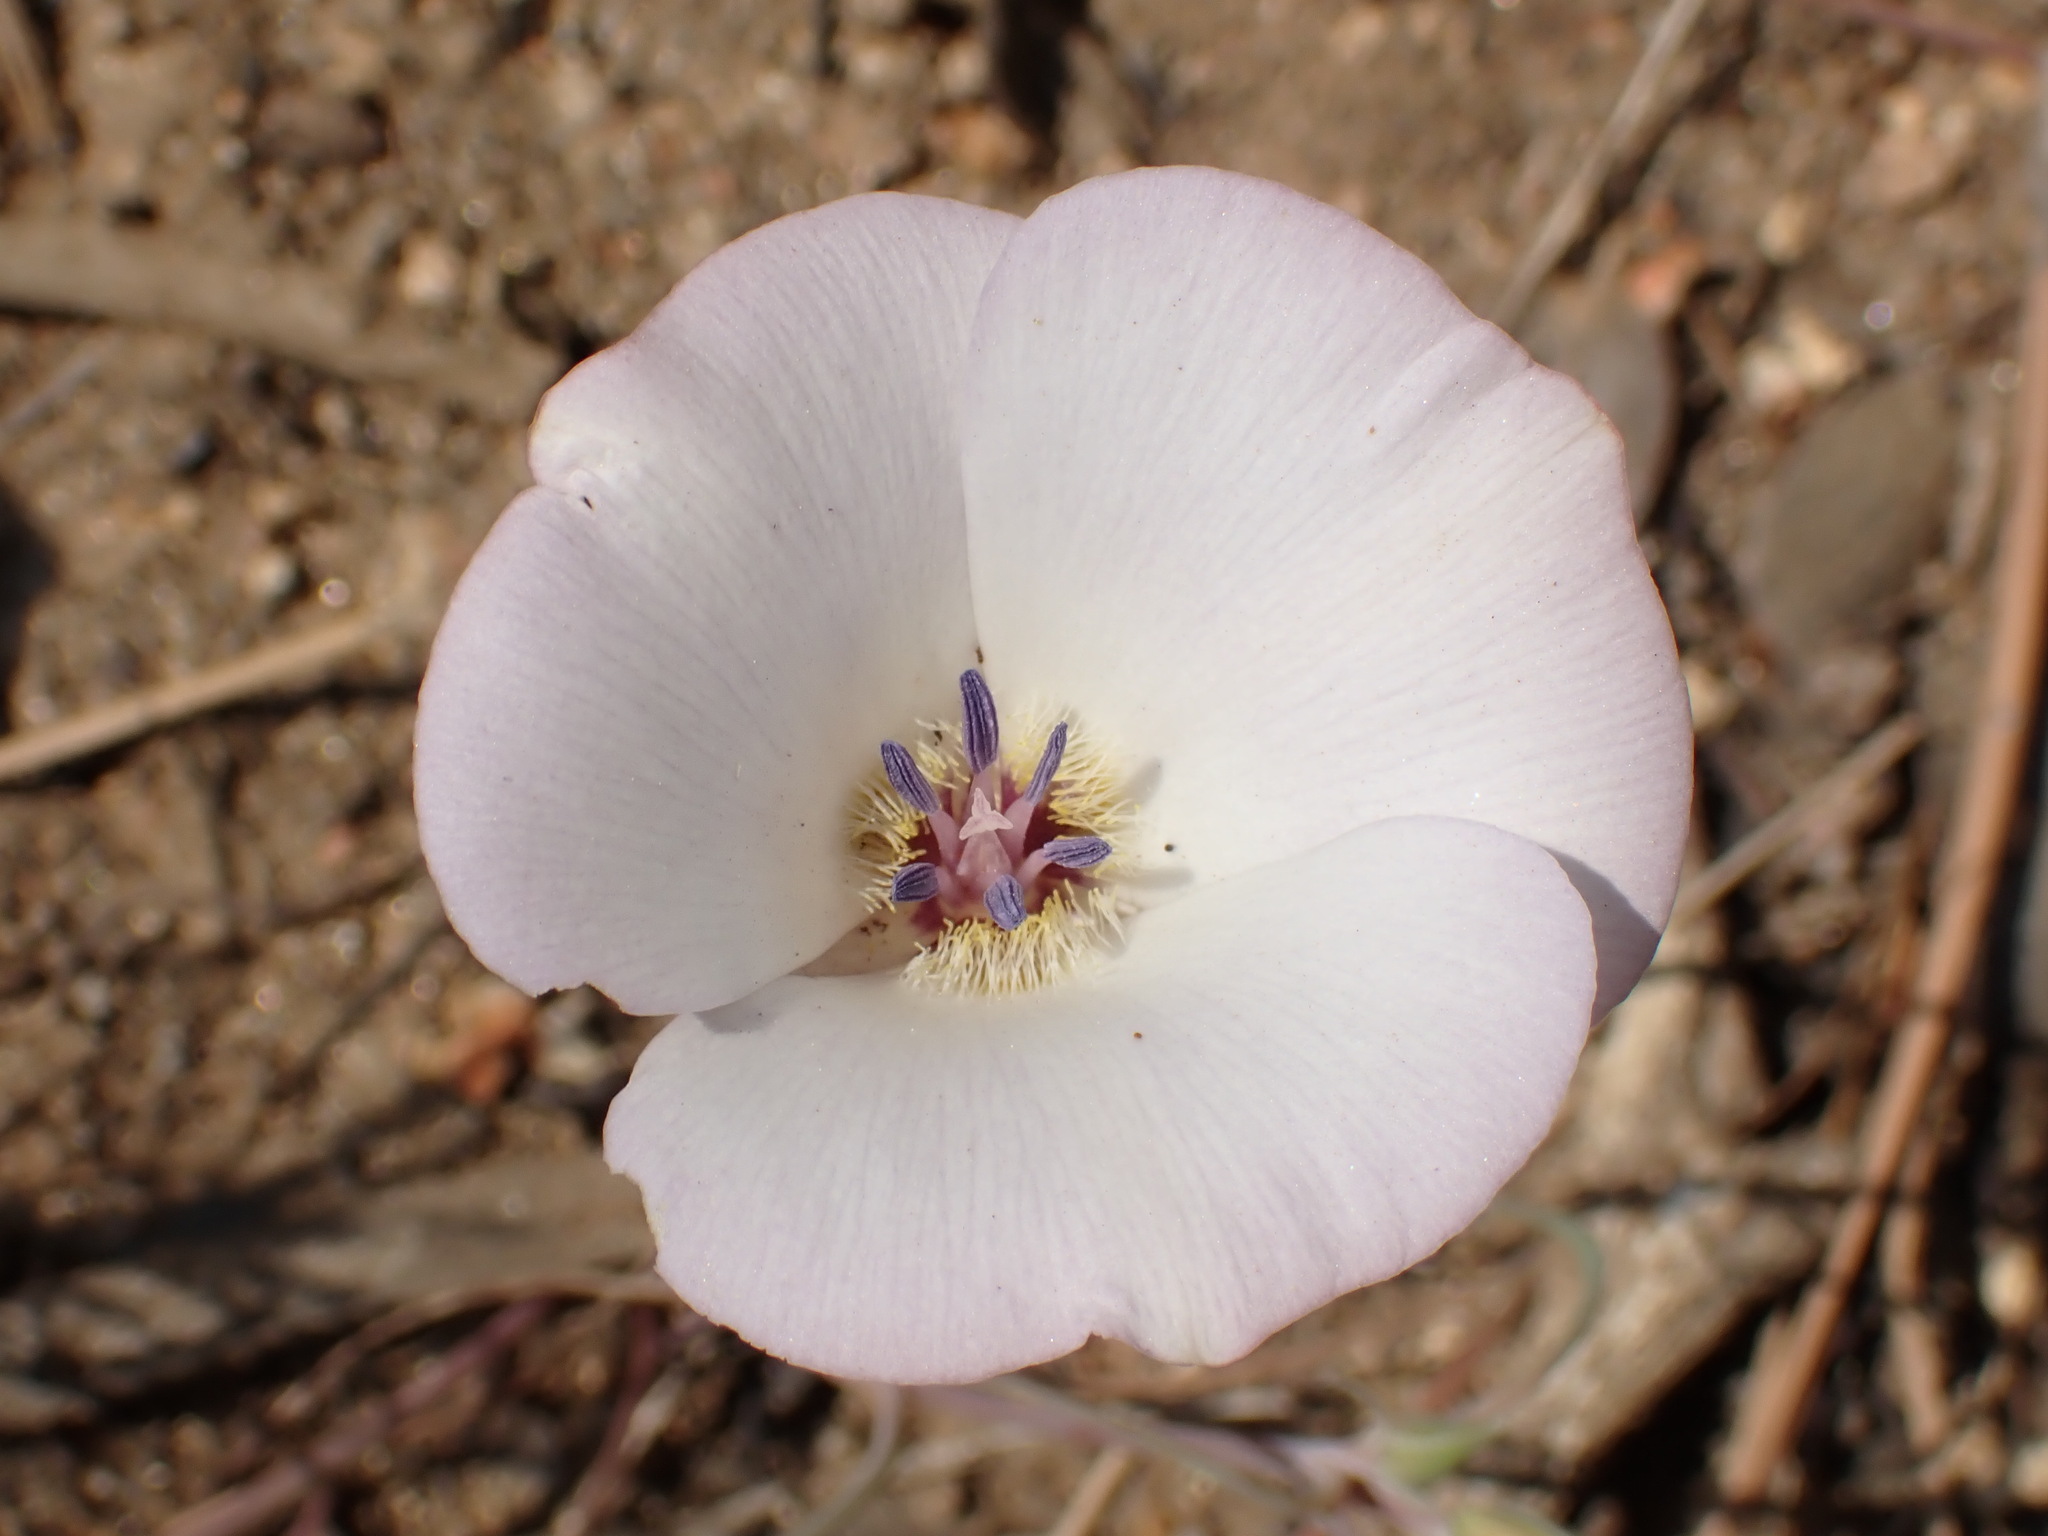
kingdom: Plantae
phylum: Tracheophyta
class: Liliopsida
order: Liliales
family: Liliaceae
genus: Calochortus
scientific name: Calochortus invenustus
